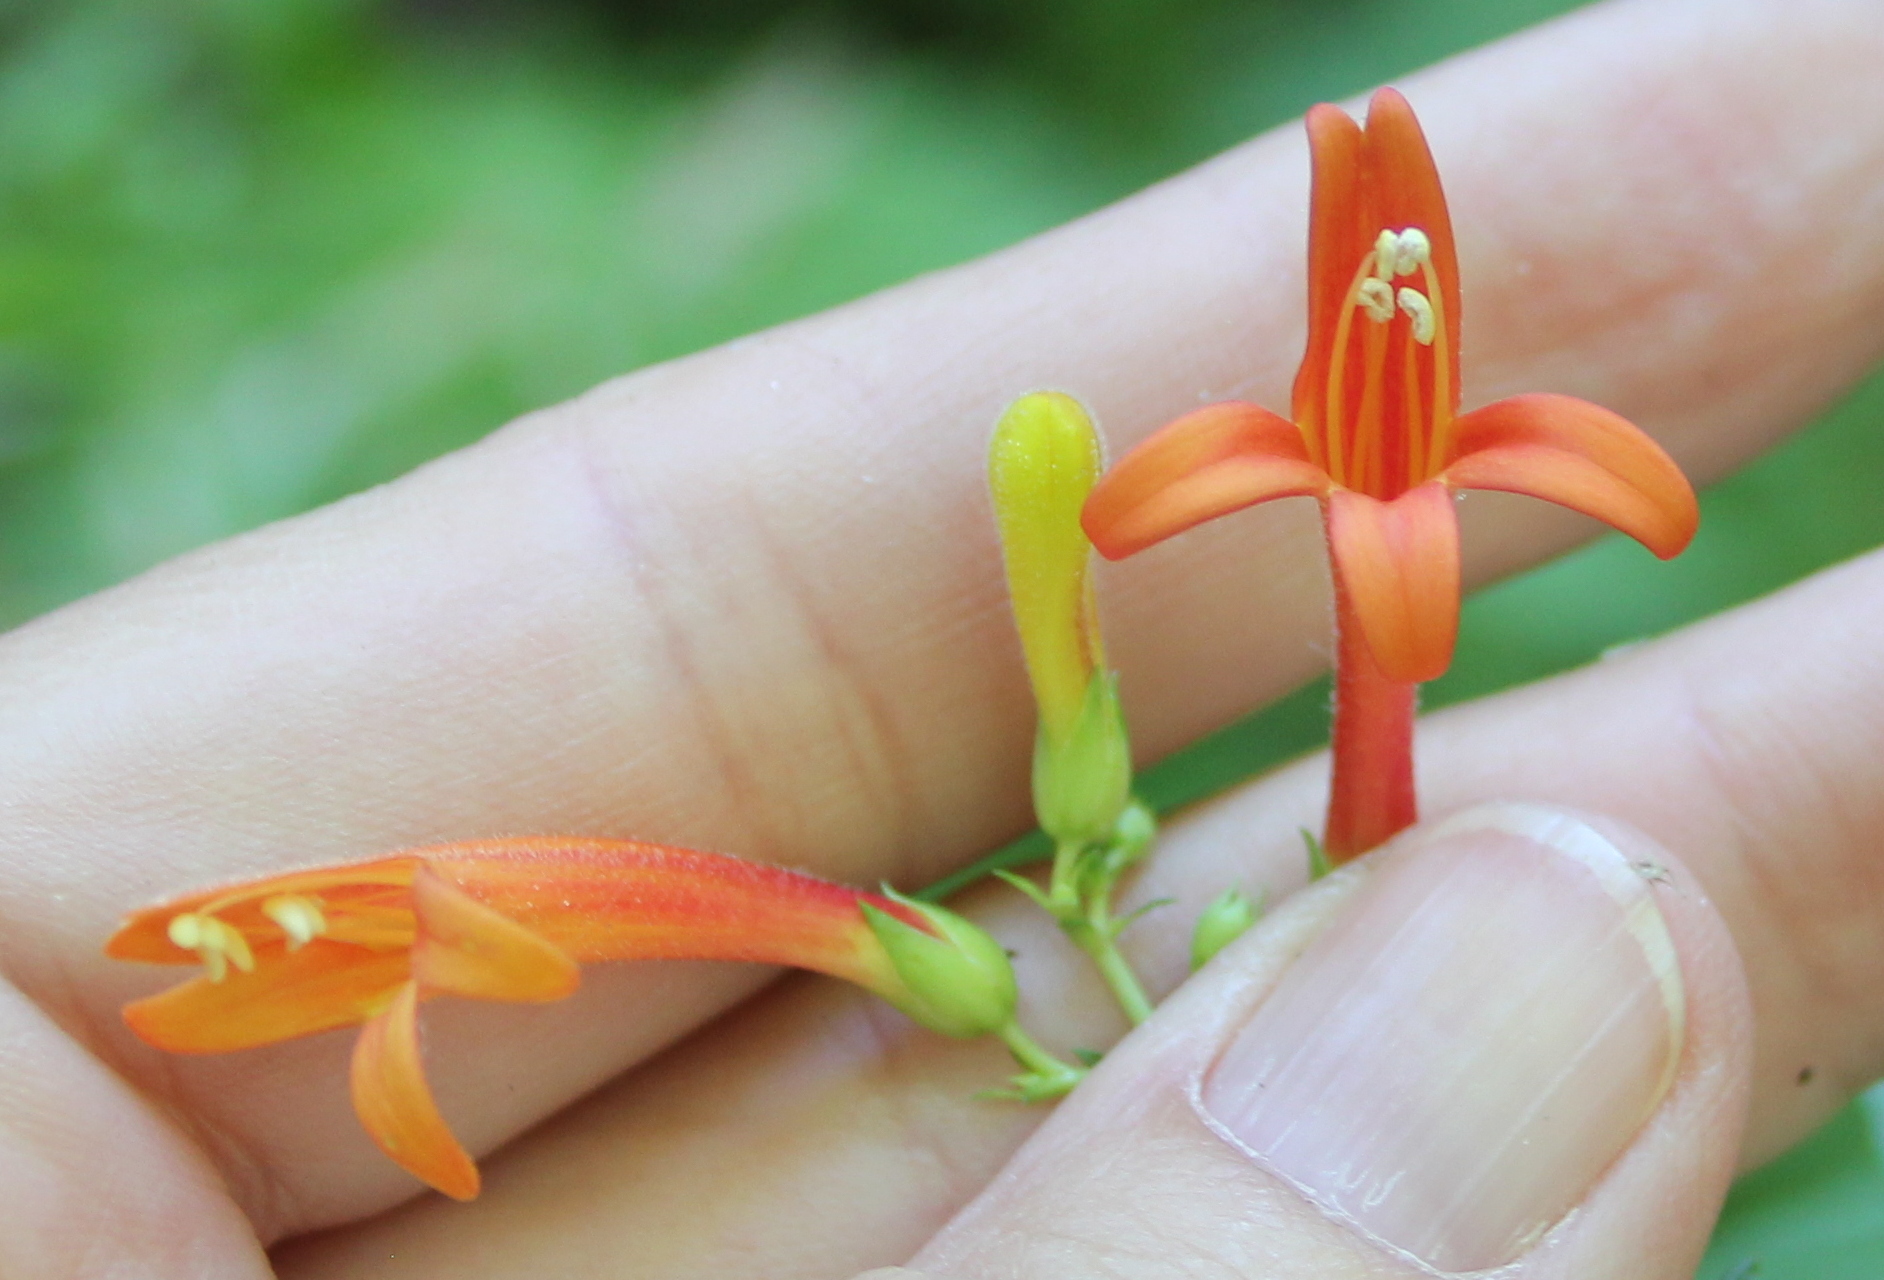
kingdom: Plantae
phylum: Tracheophyta
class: Magnoliopsida
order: Lamiales
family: Plantaginaceae
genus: Keckiella
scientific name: Keckiella ternata
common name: Scarlet keckiella
